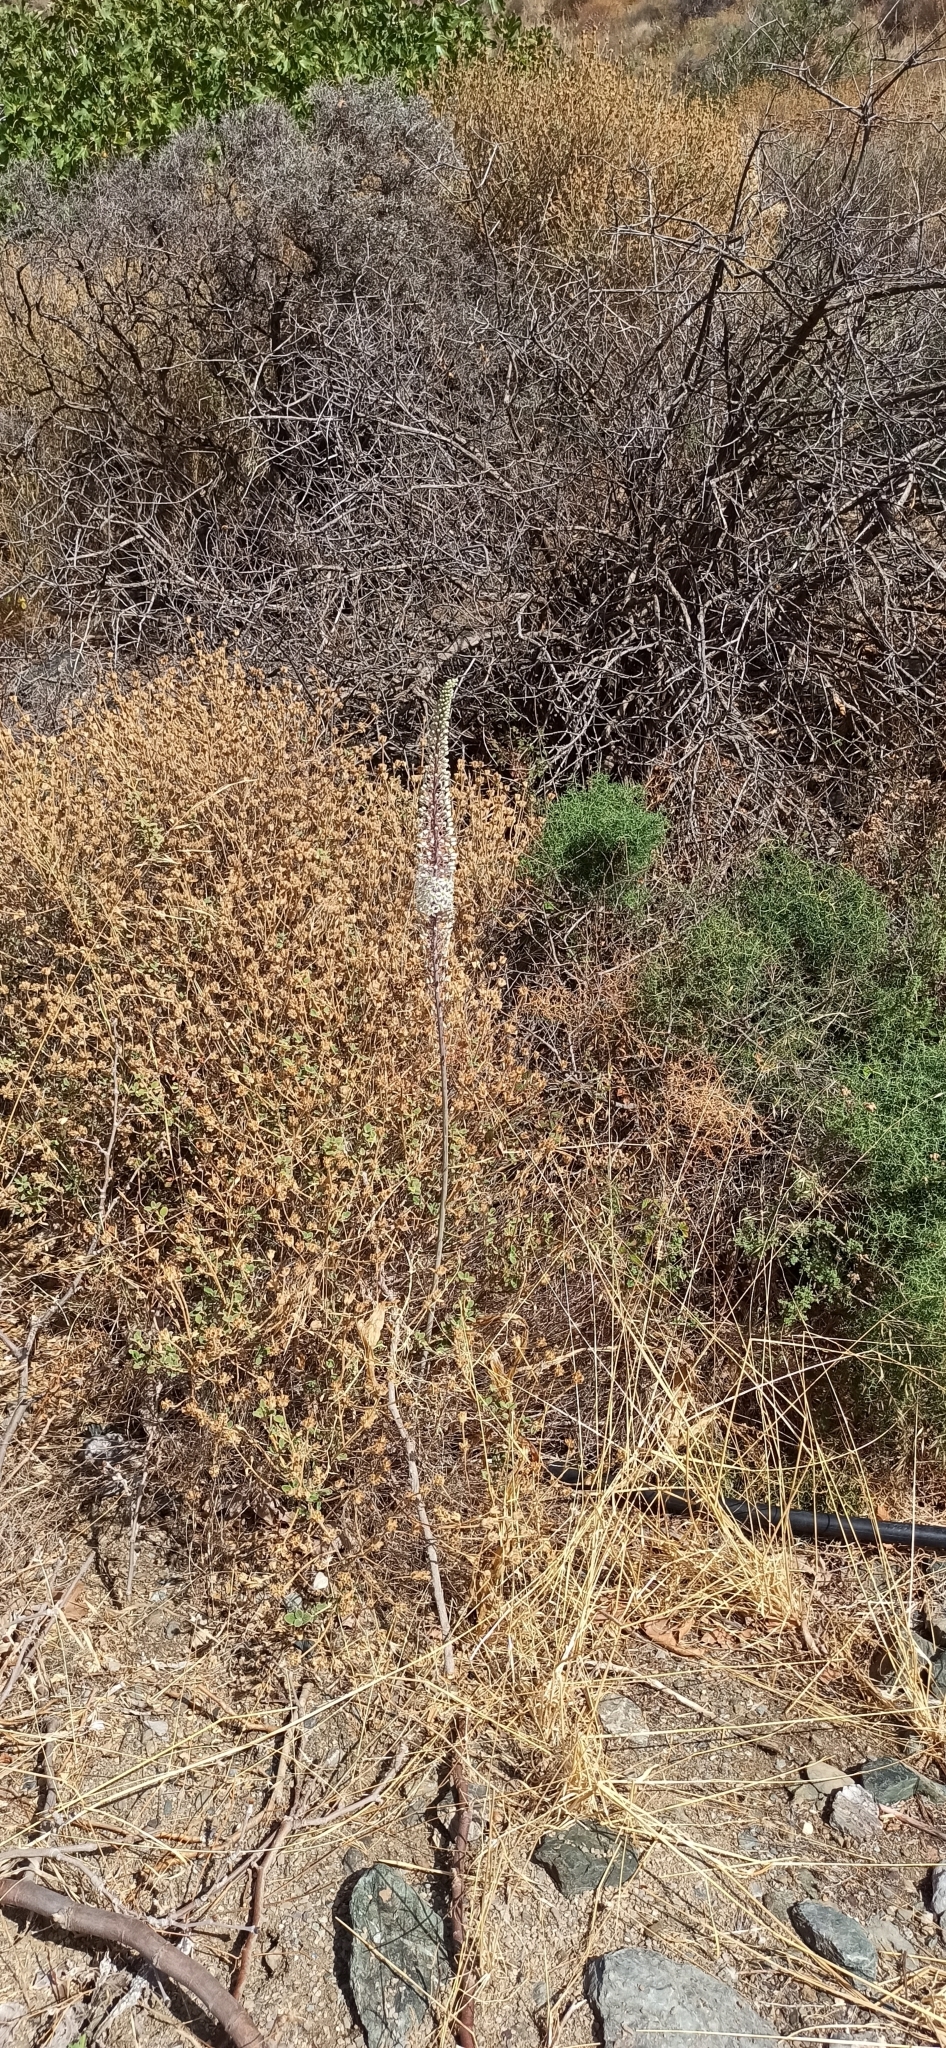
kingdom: Plantae
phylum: Tracheophyta
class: Liliopsida
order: Asparagales
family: Asparagaceae
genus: Drimia
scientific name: Drimia numidica
